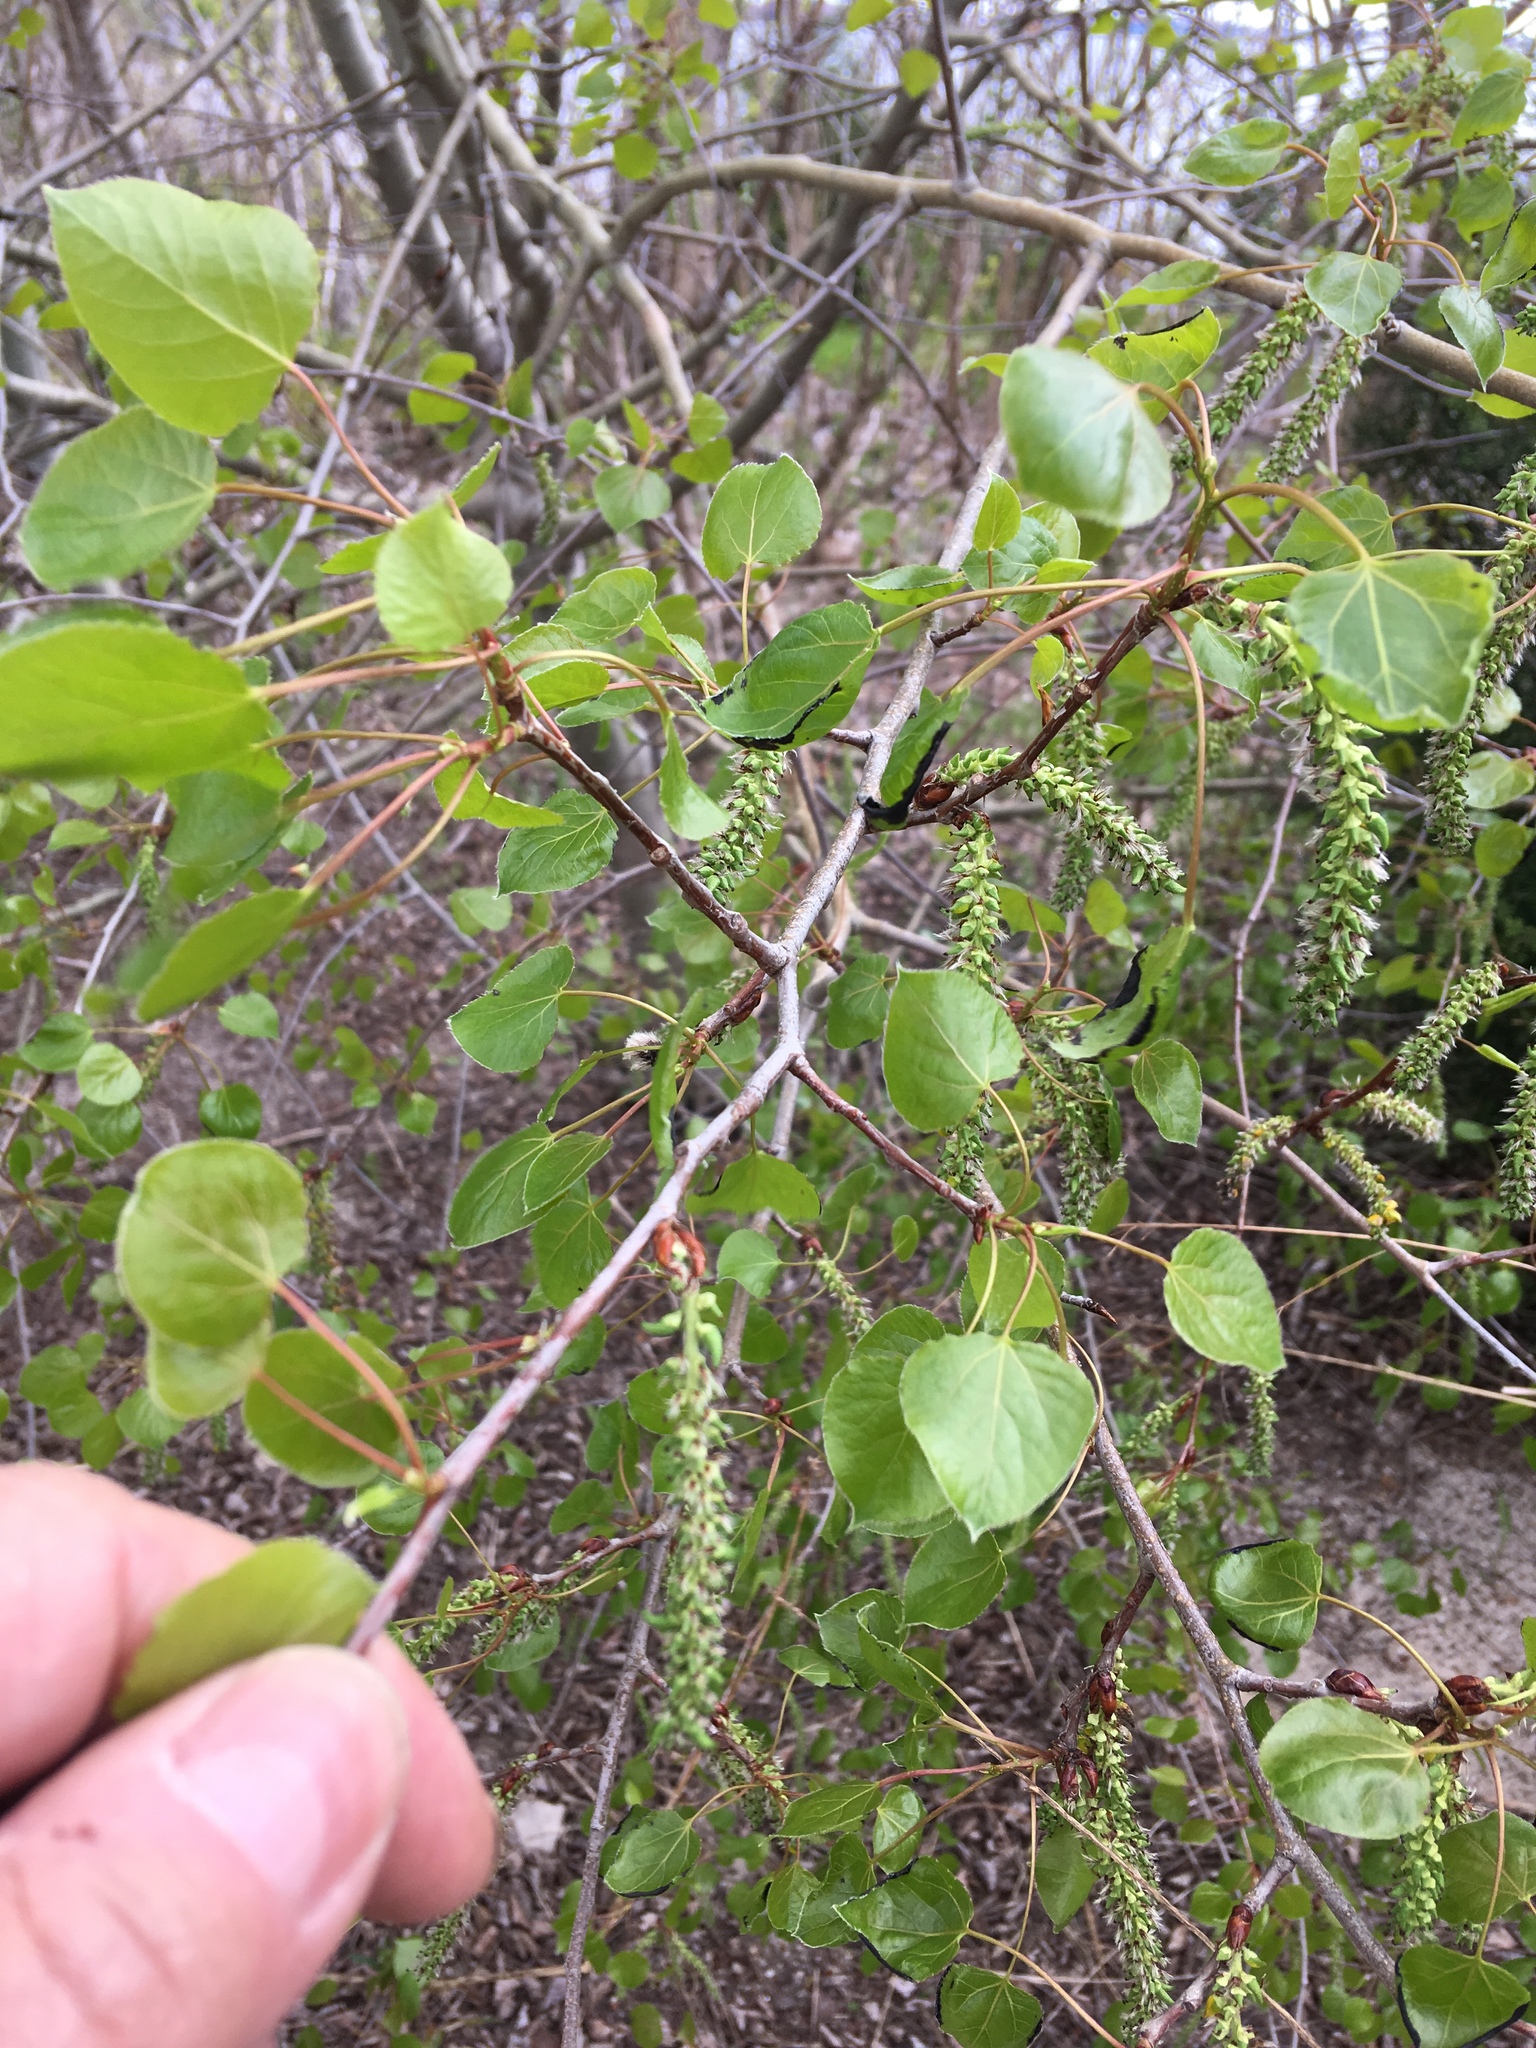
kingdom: Plantae
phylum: Tracheophyta
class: Magnoliopsida
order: Malpighiales
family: Salicaceae
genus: Populus
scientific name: Populus tremuloides
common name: Quaking aspen
